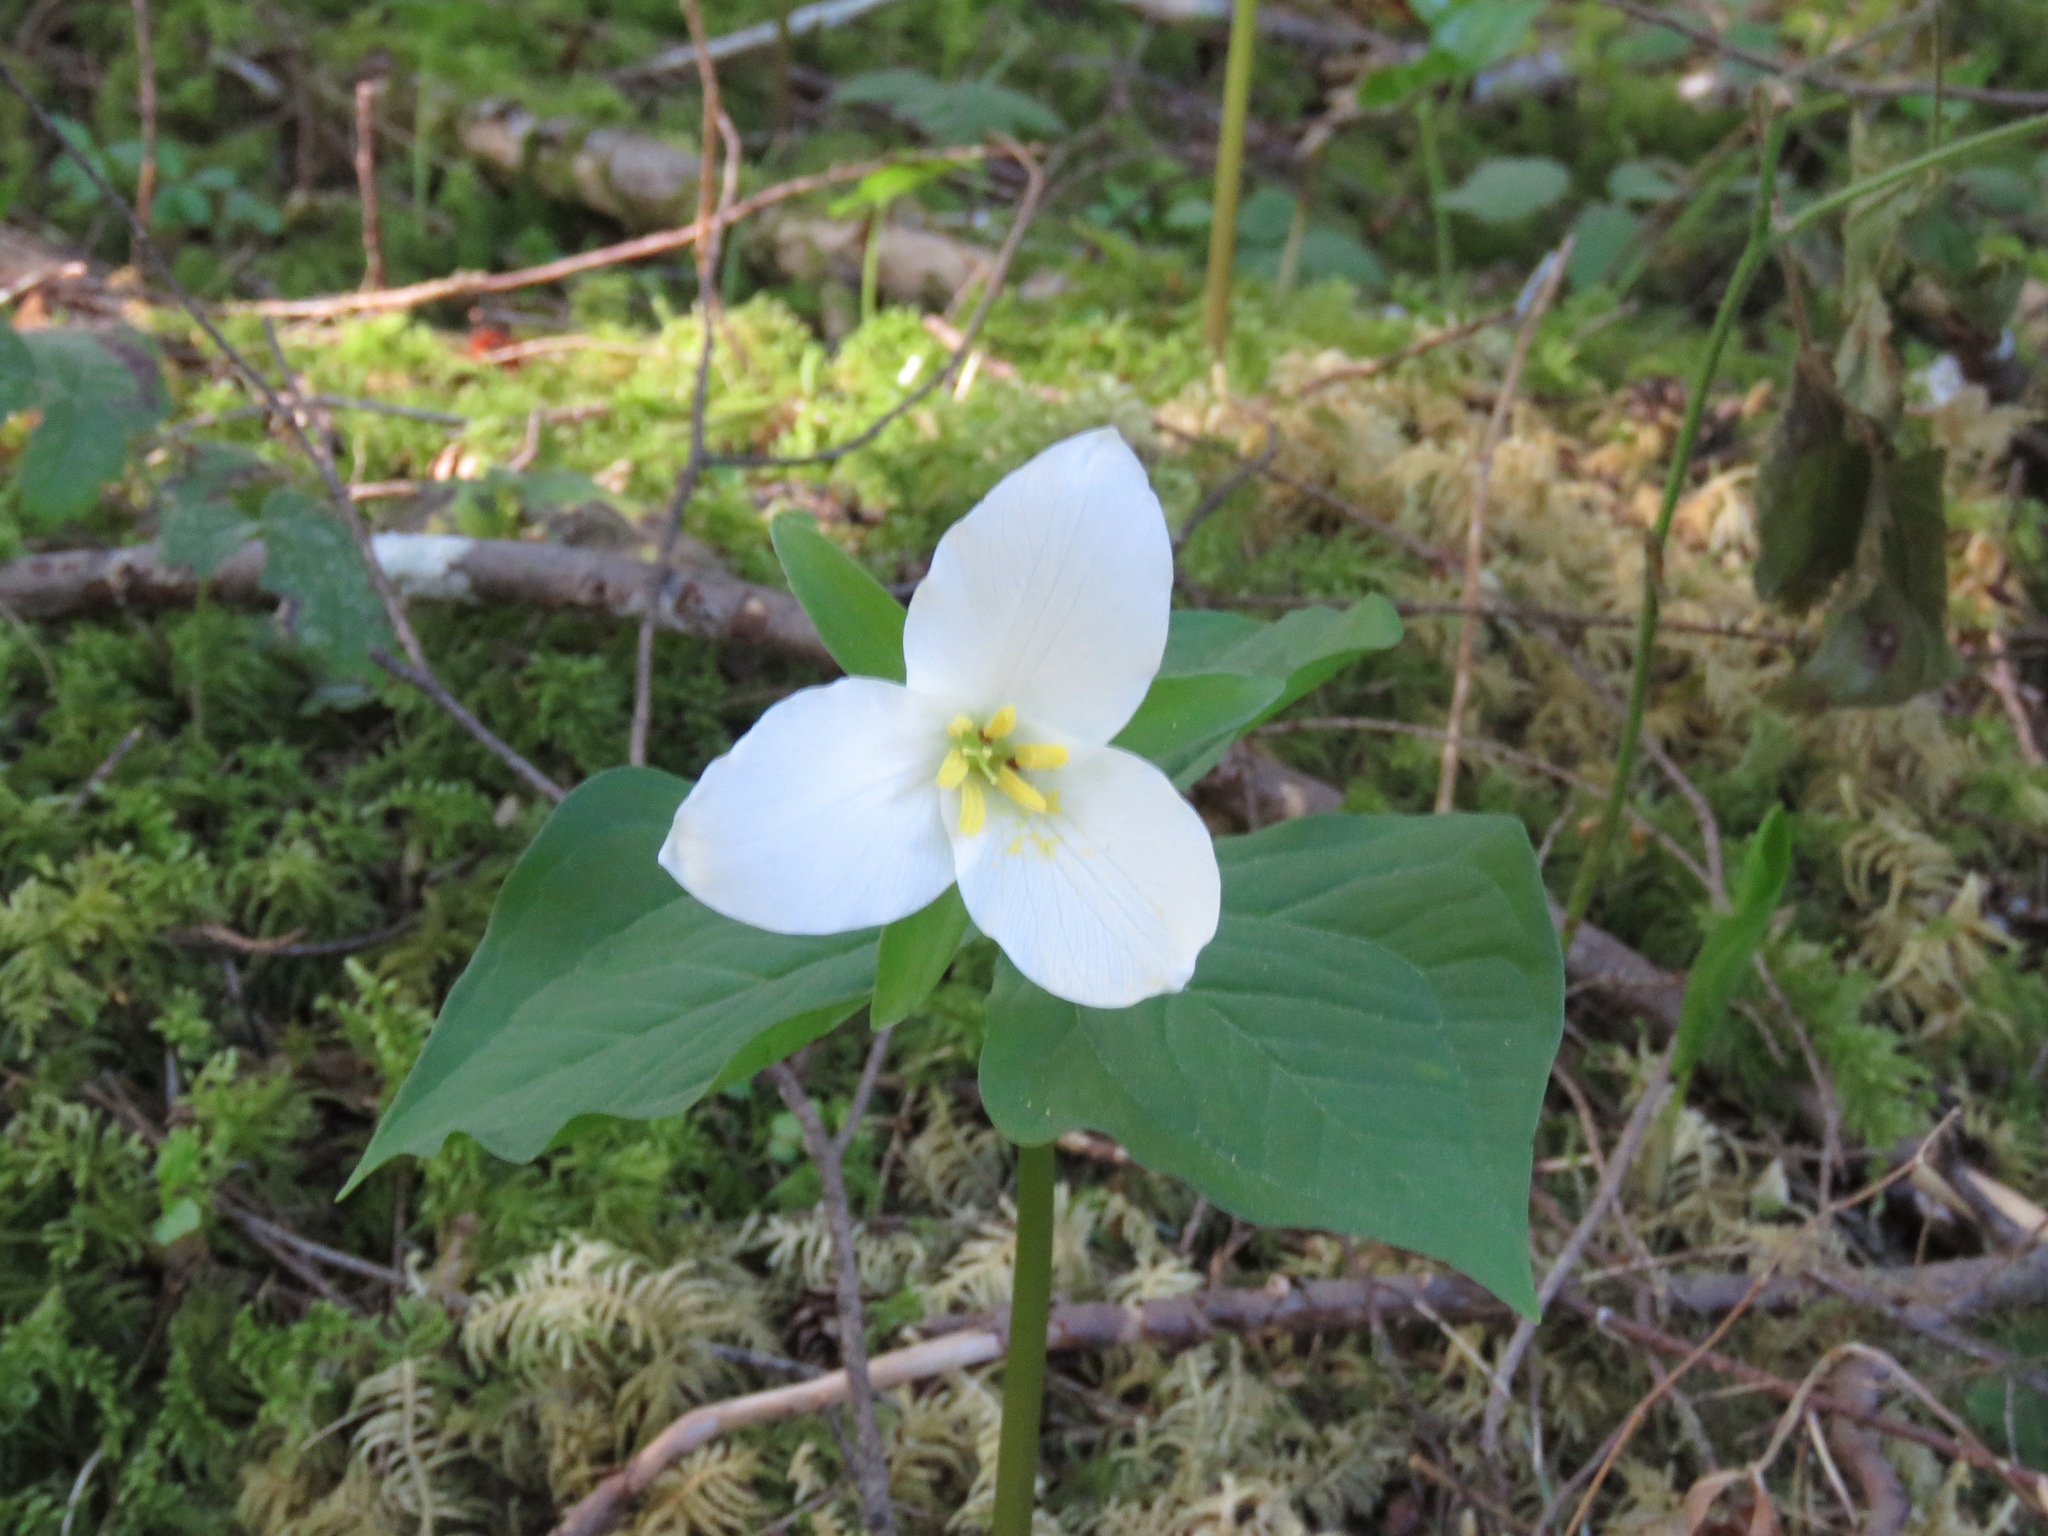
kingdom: Plantae
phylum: Tracheophyta
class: Liliopsida
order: Liliales
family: Melanthiaceae
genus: Trillium
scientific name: Trillium ovatum
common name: Pacific trillium
